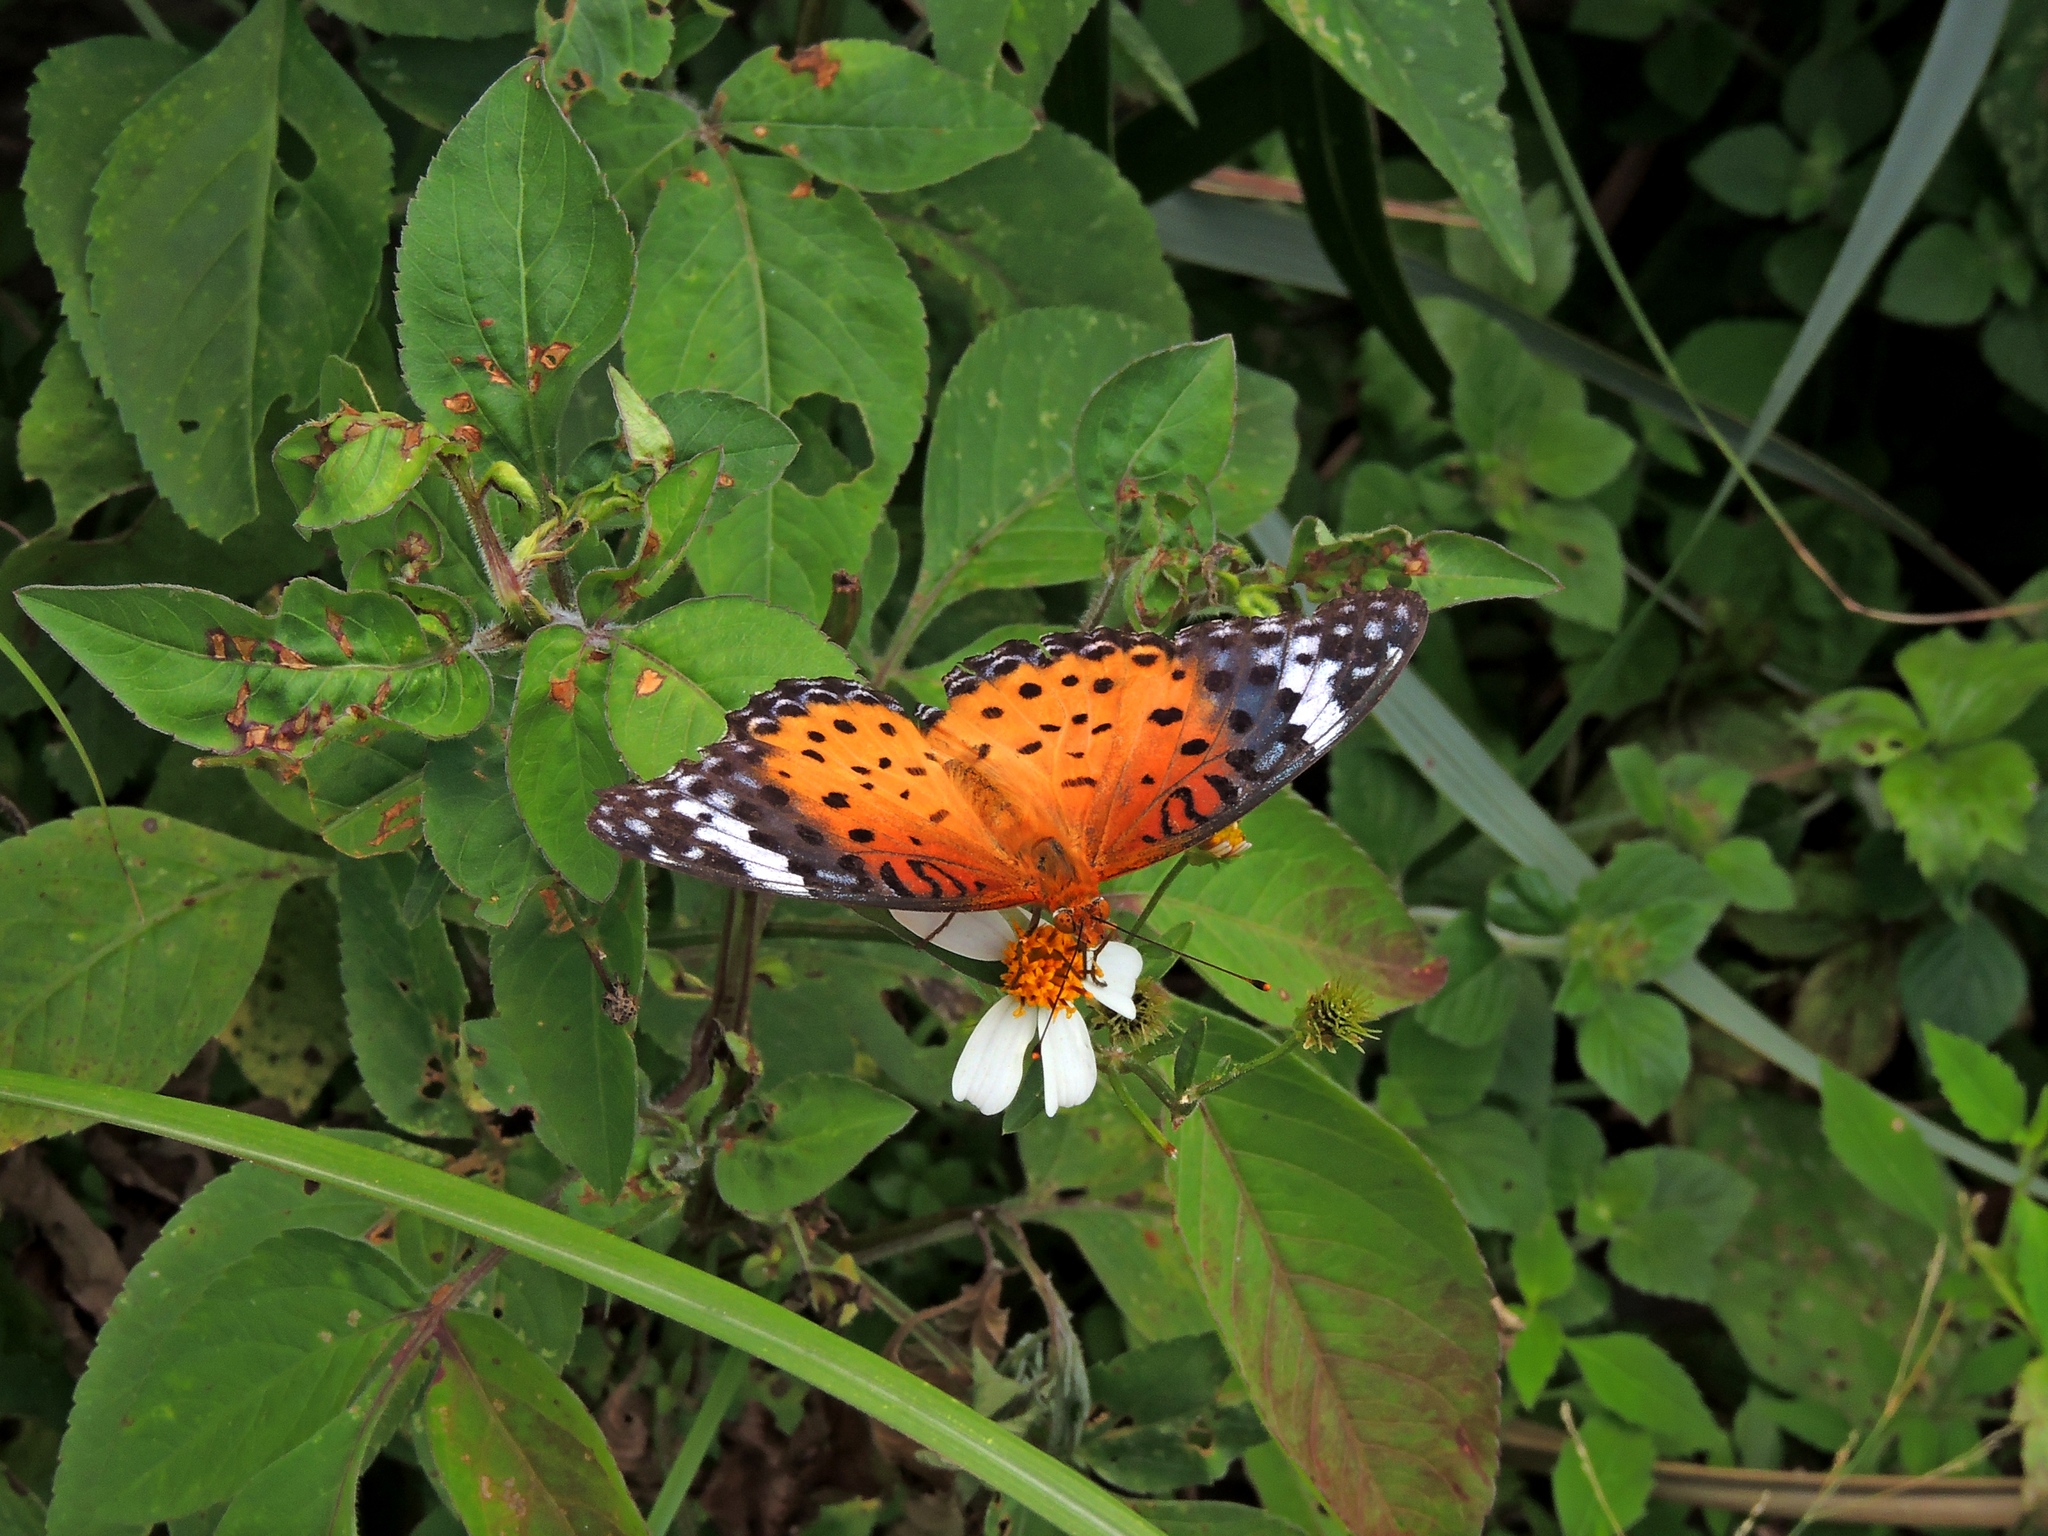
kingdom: Animalia
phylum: Arthropoda
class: Insecta
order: Lepidoptera
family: Nymphalidae
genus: Argynnis
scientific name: Argynnis hyperbius
